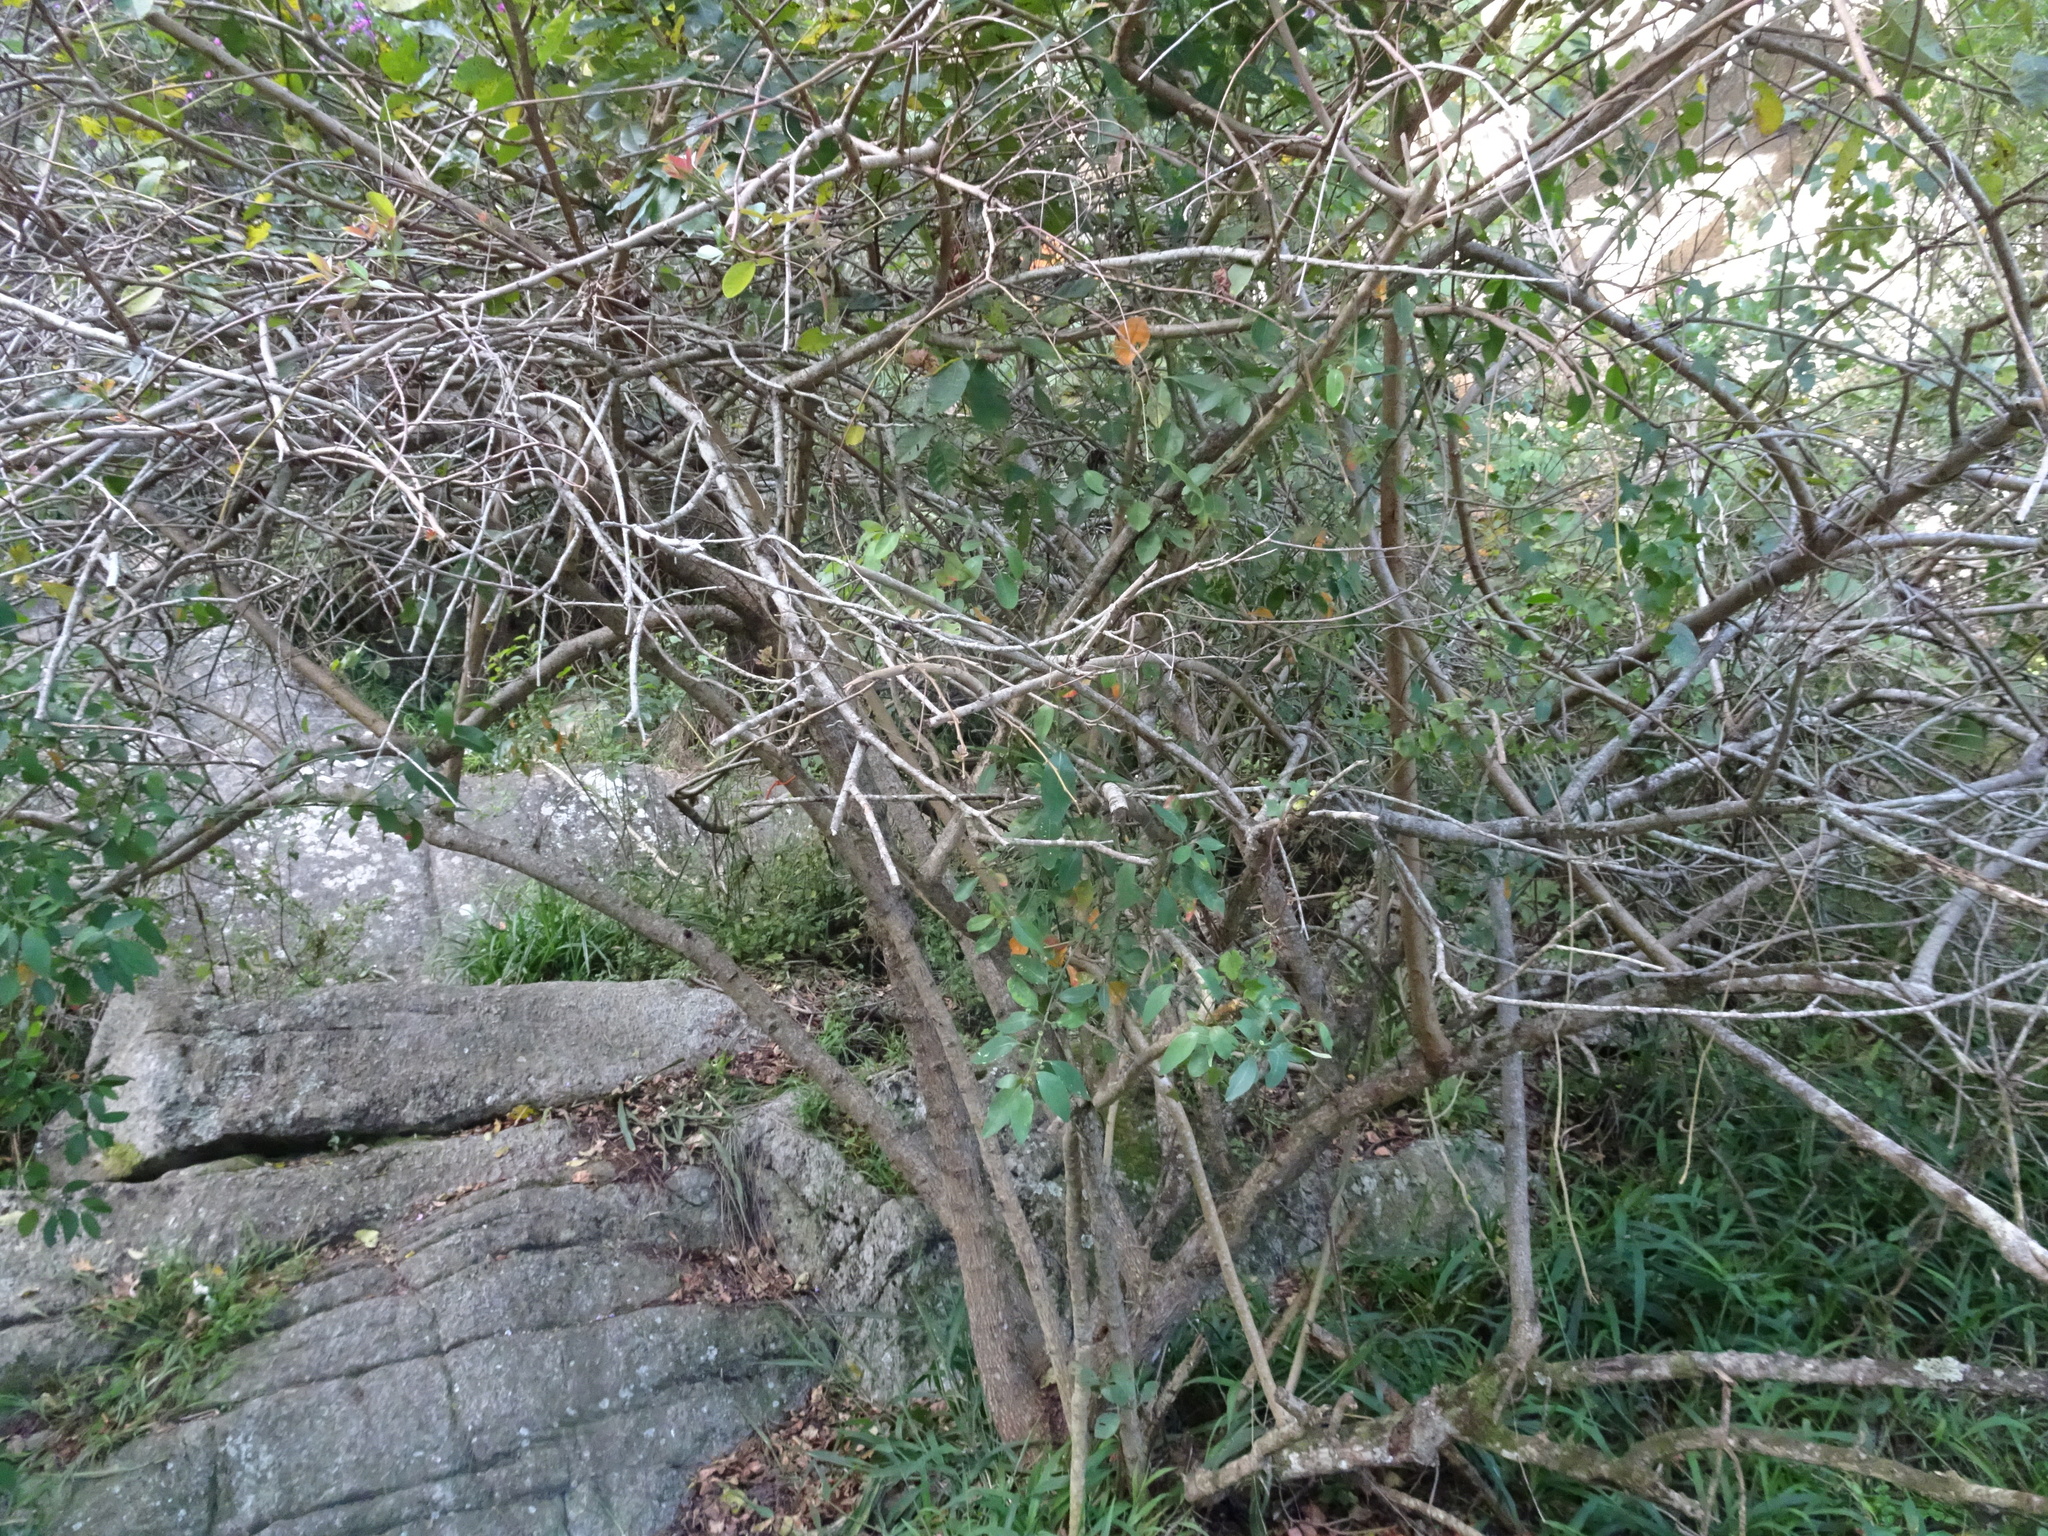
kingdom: Plantae
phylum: Tracheophyta
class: Magnoliopsida
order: Malpighiales
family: Peraceae
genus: Clutia
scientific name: Clutia pulchella
